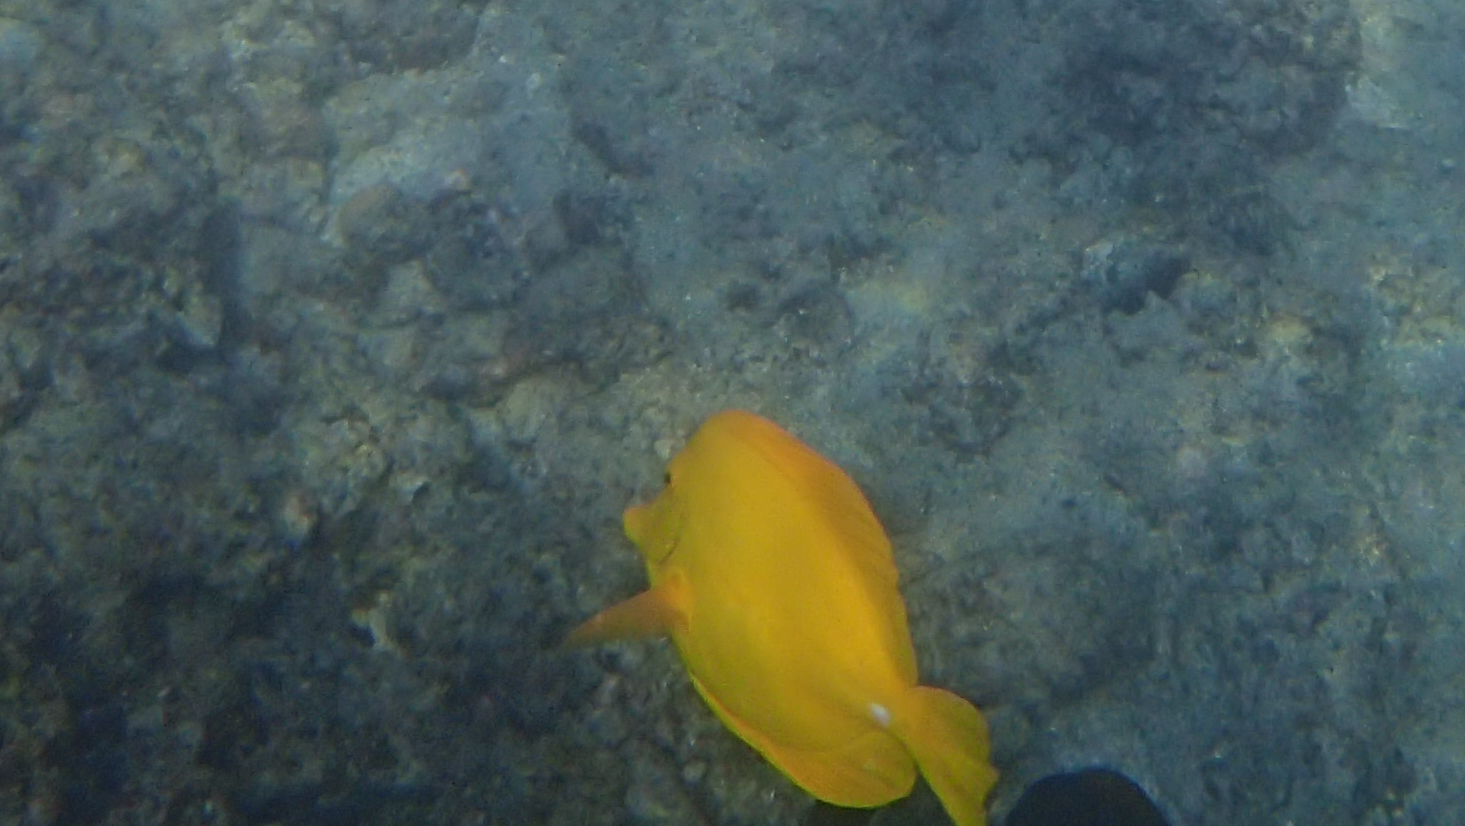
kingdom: Animalia
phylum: Chordata
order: Perciformes
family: Acanthuridae
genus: Zebrasoma
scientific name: Zebrasoma flavescens
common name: Yellow tang
